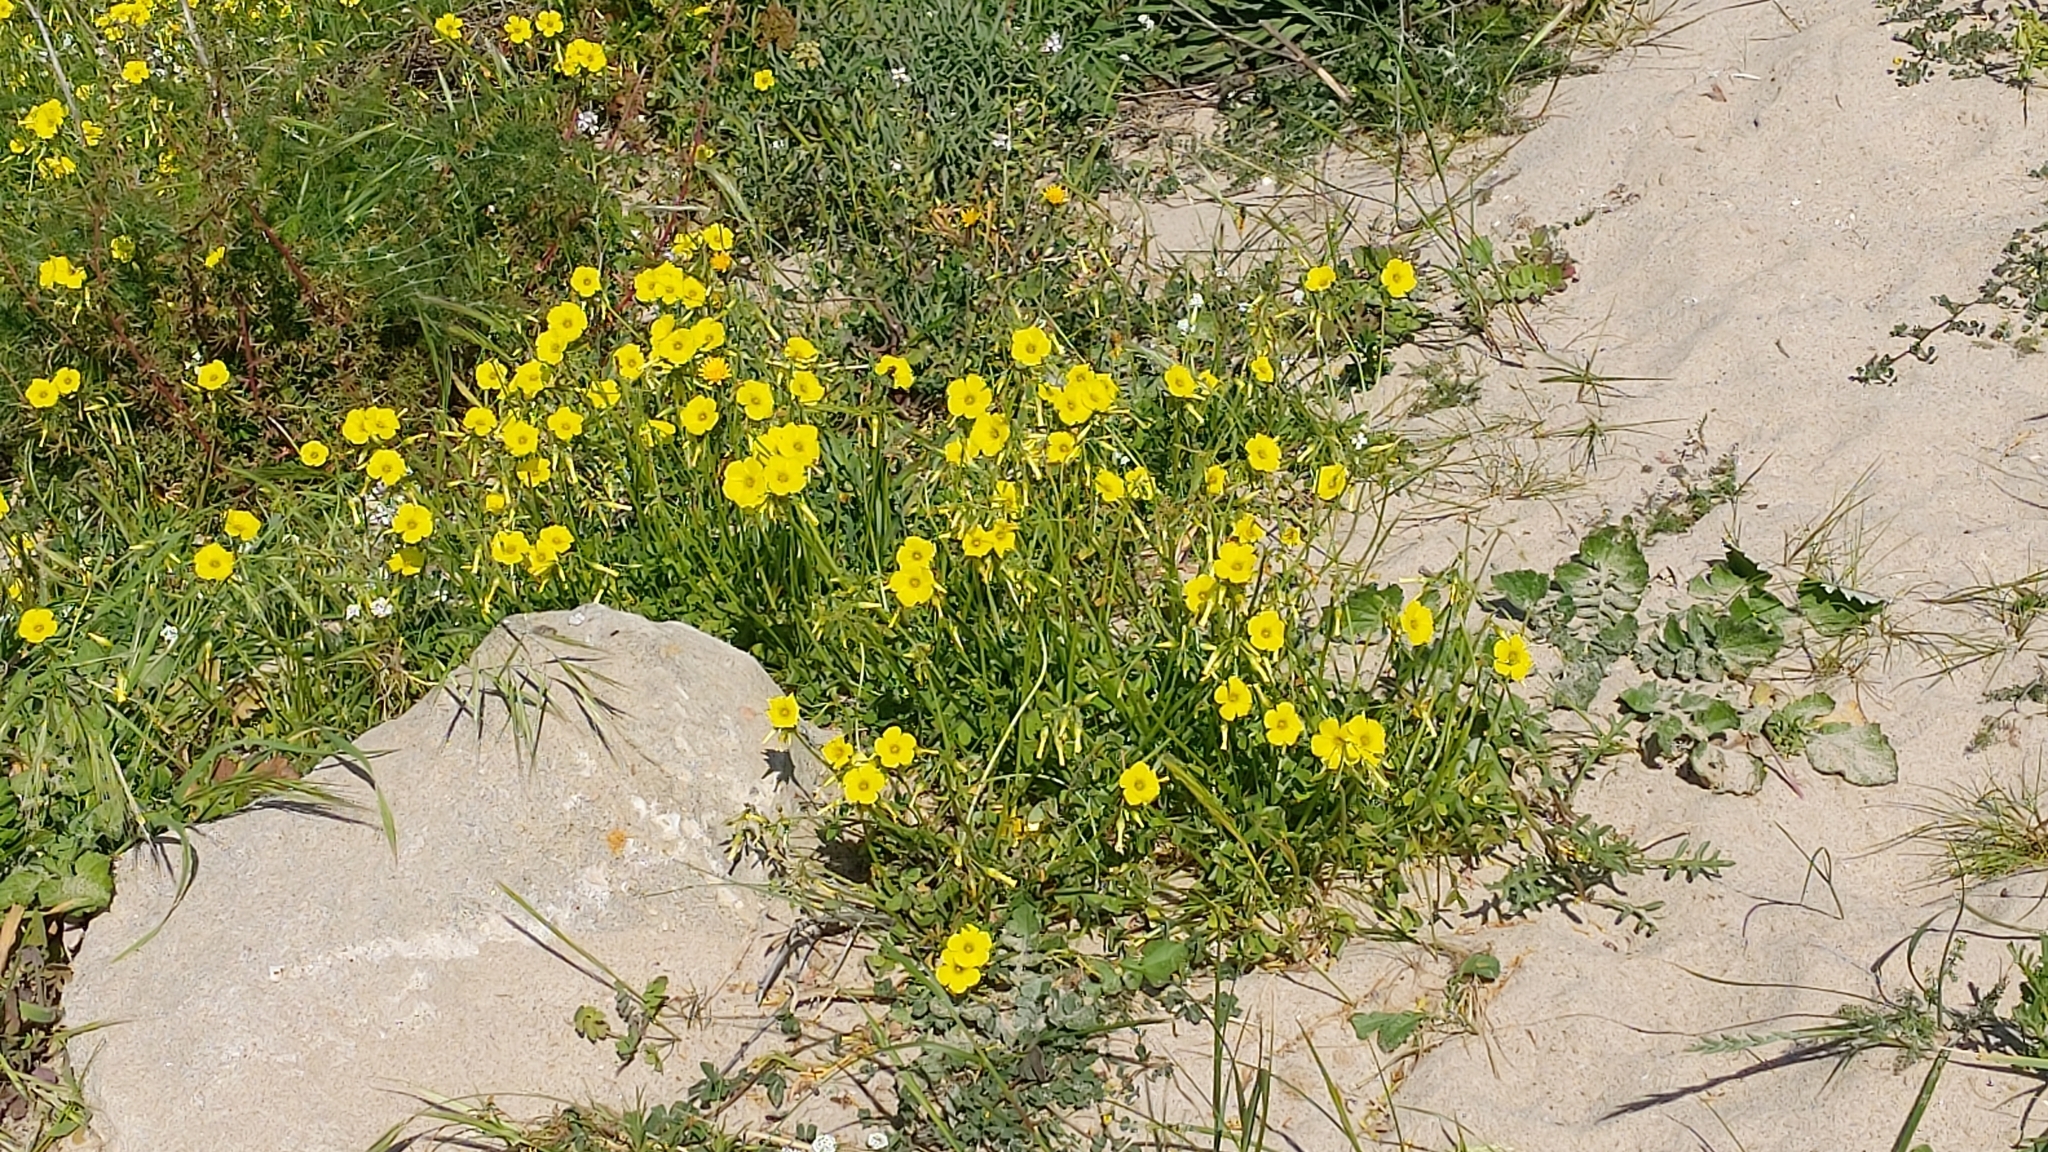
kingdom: Plantae
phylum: Tracheophyta
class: Magnoliopsida
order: Oxalidales
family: Oxalidaceae
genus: Oxalis
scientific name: Oxalis pes-caprae
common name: Bermuda-buttercup
